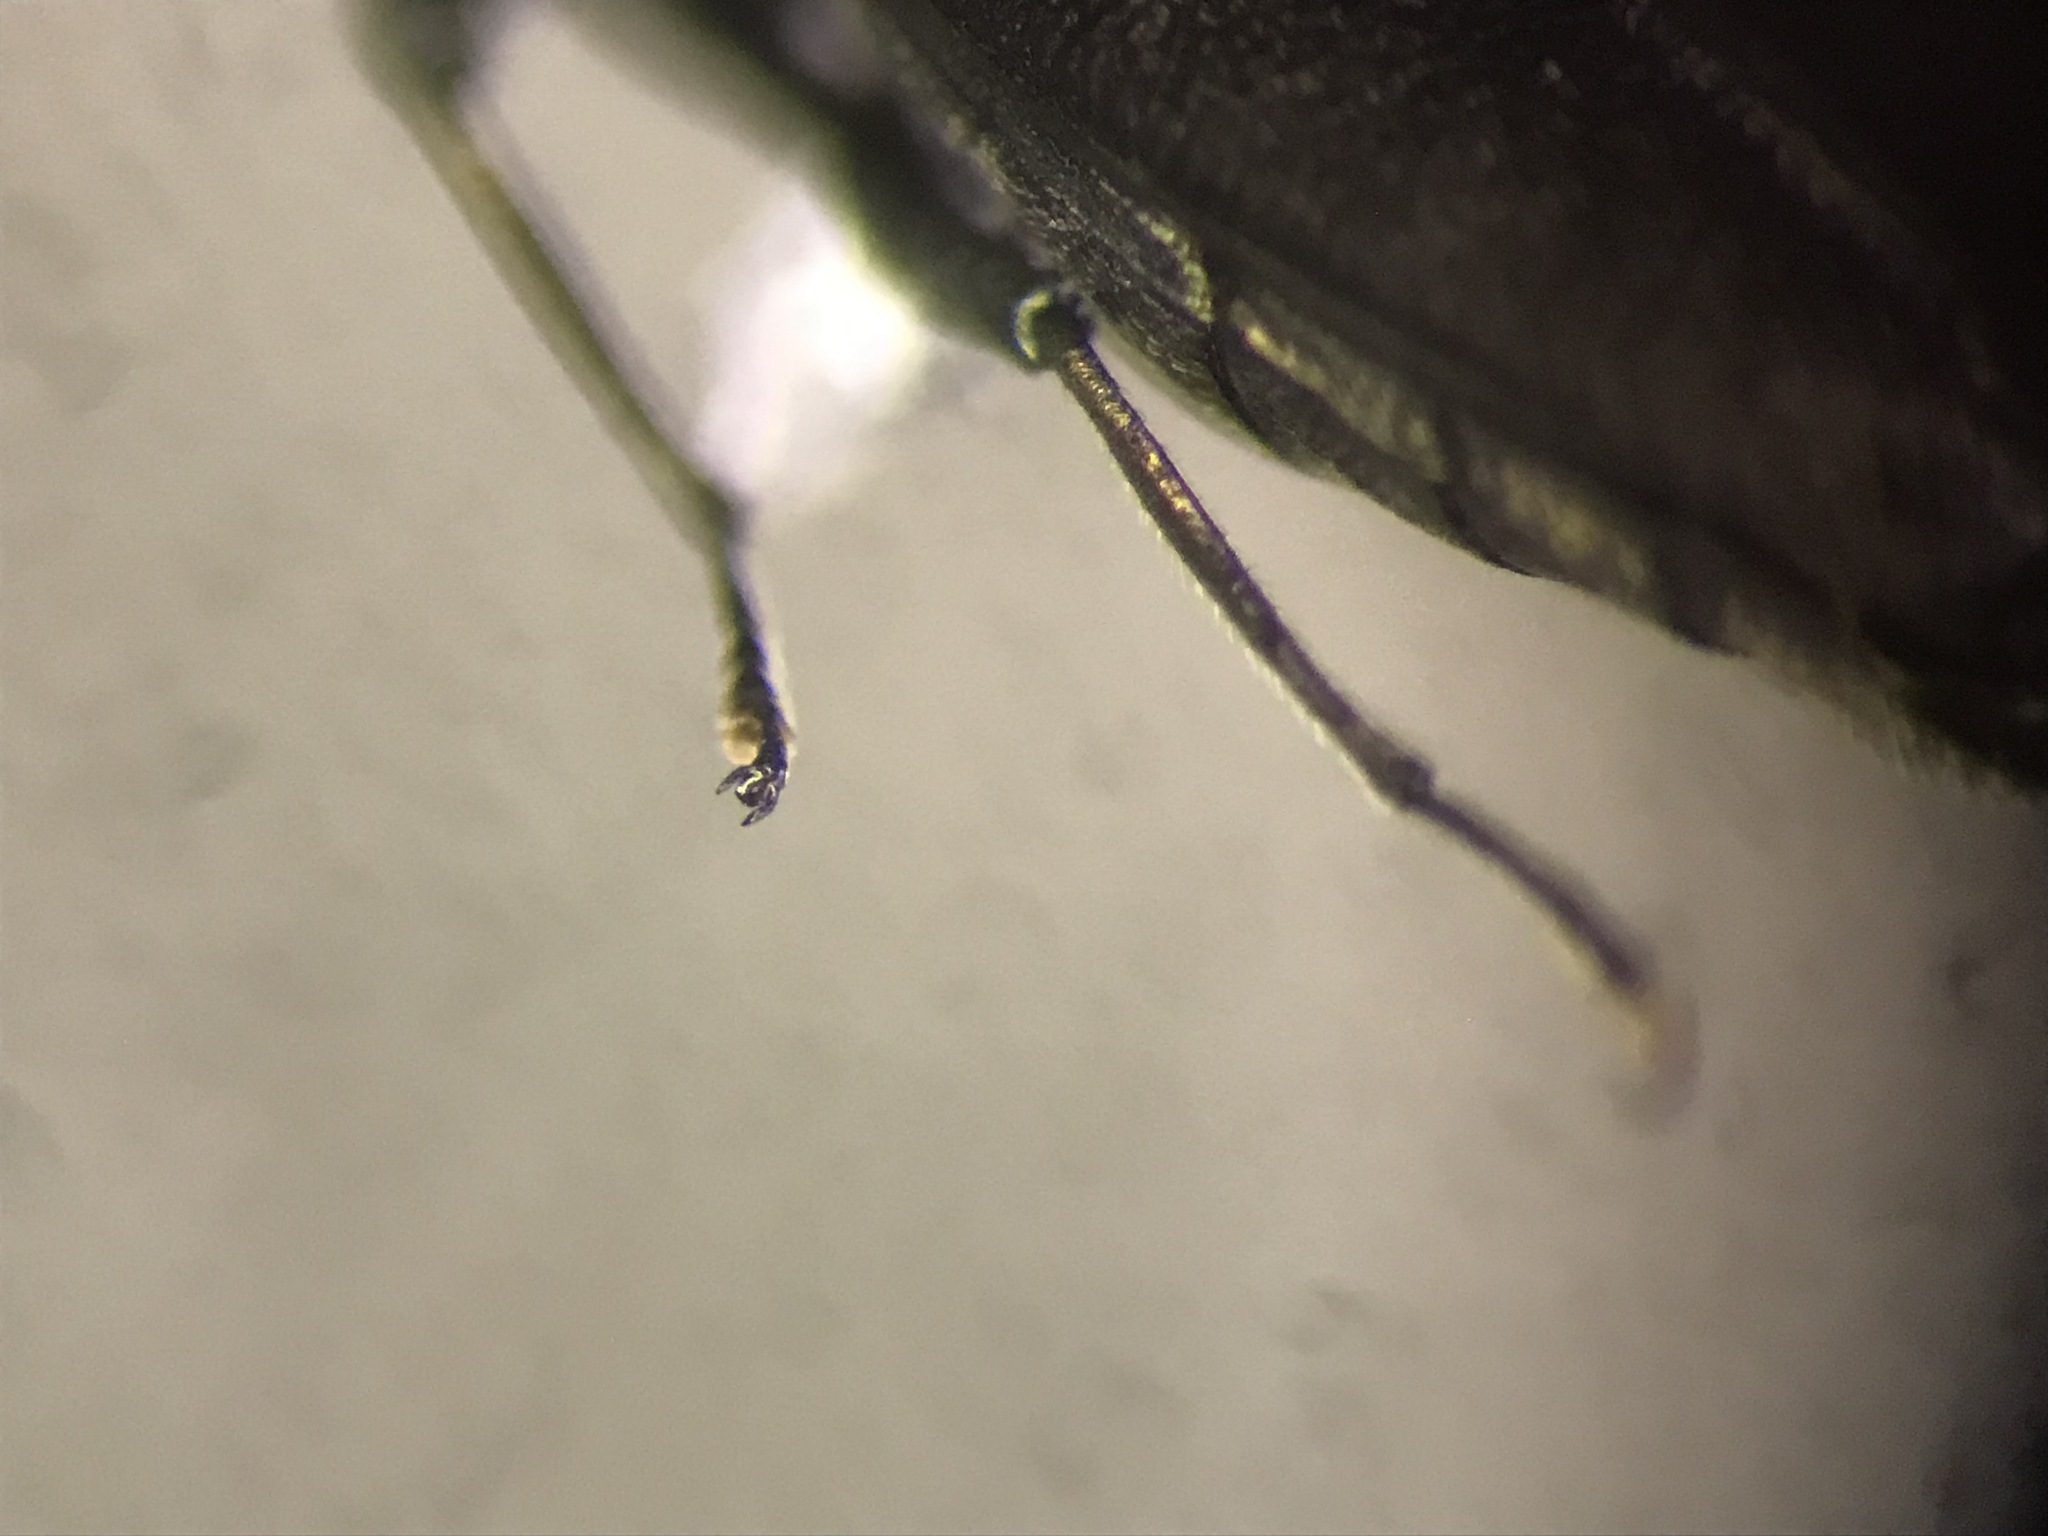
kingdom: Animalia
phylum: Arthropoda
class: Insecta
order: Coleoptera
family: Buprestidae
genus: Agrilus
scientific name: Agrilus masculinus
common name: Maple agrilus
